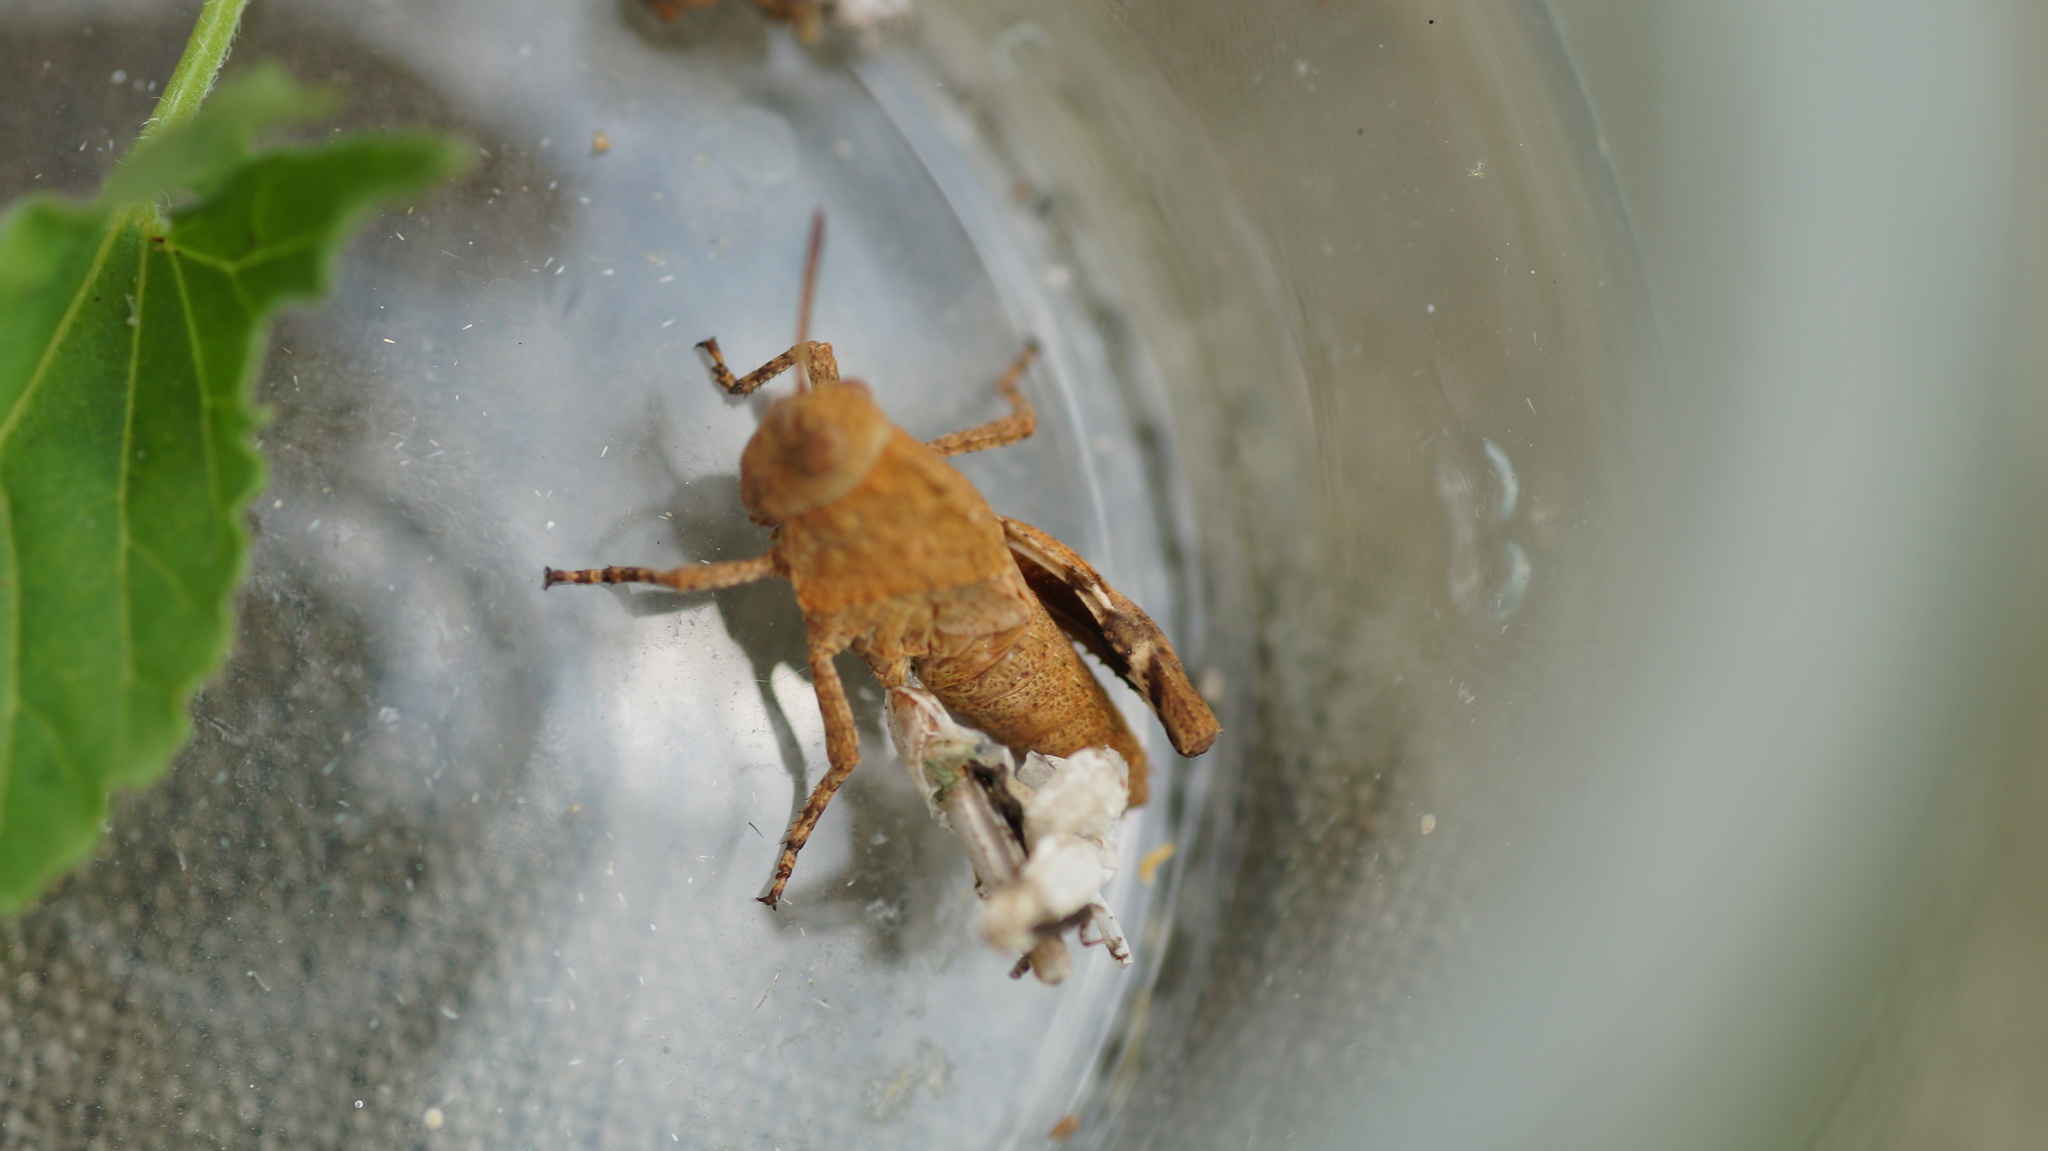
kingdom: Animalia
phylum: Arthropoda
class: Insecta
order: Orthoptera
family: Acrididae
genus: Oedipoda
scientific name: Oedipoda caerulescens
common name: Blue-winged grasshopper
